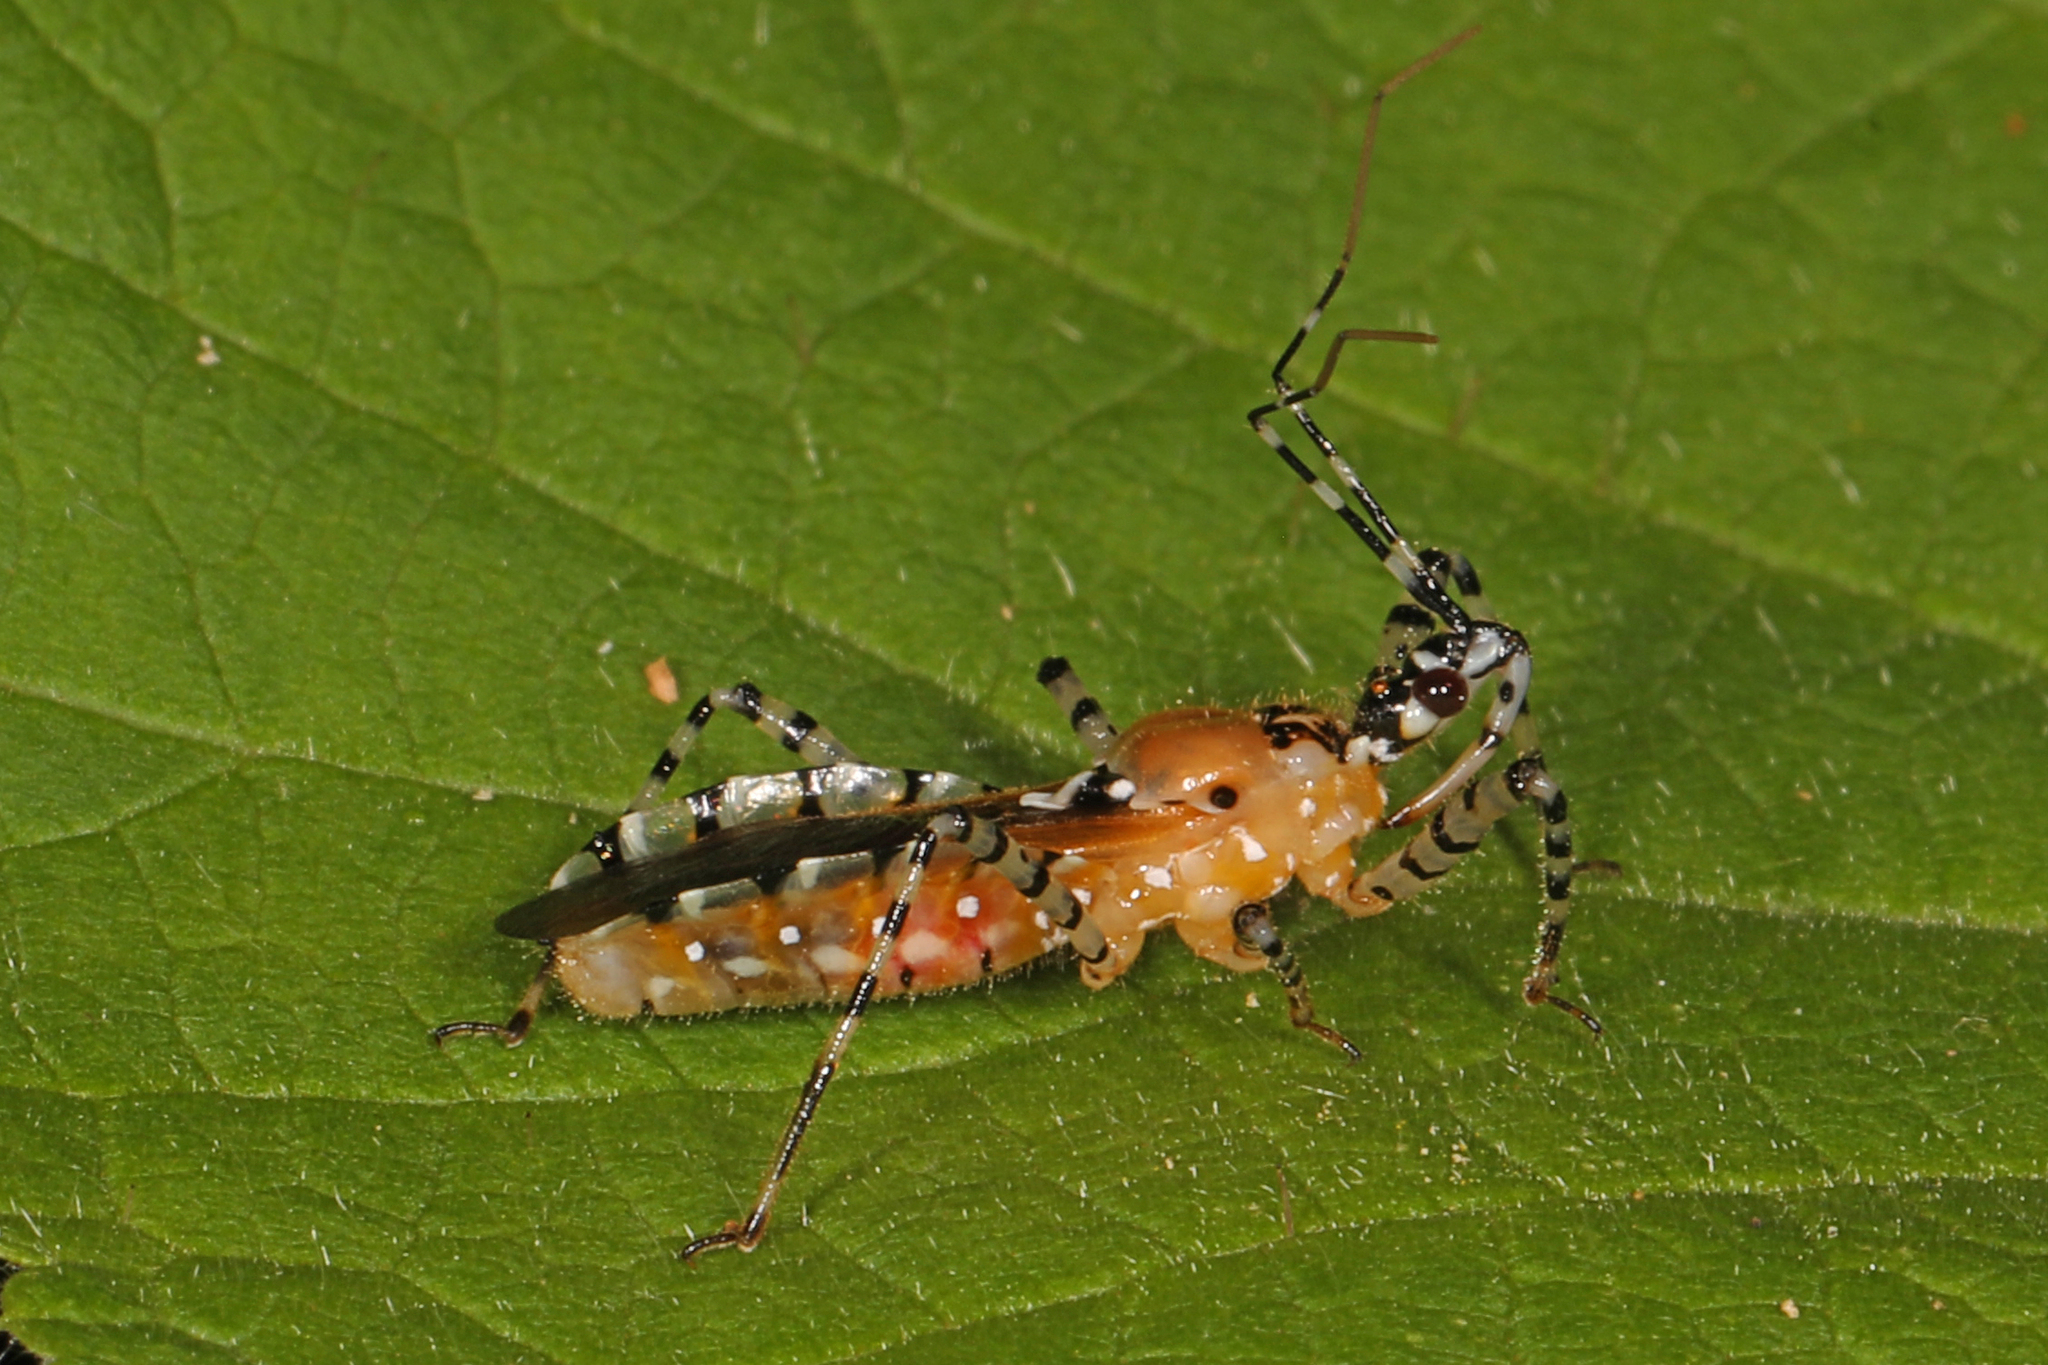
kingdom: Animalia
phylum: Arthropoda
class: Insecta
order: Hemiptera
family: Reduviidae
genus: Pselliopus
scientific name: Pselliopus cinctus
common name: Ringed assassin bug
